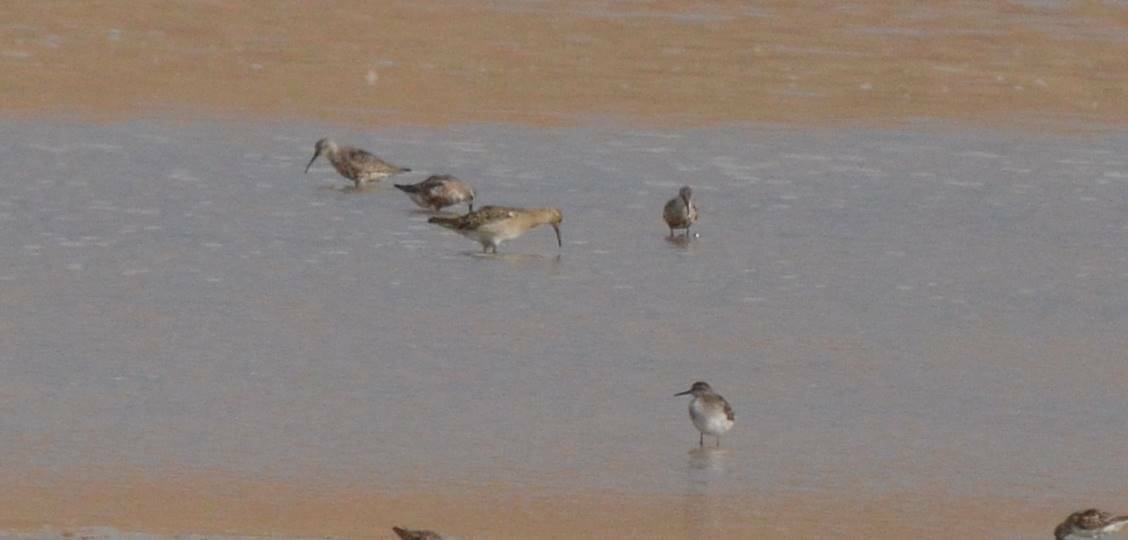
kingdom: Animalia
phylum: Chordata
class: Aves
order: Charadriiformes
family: Scolopacidae
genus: Calidris
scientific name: Calidris ferruginea
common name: Curlew sandpiper
